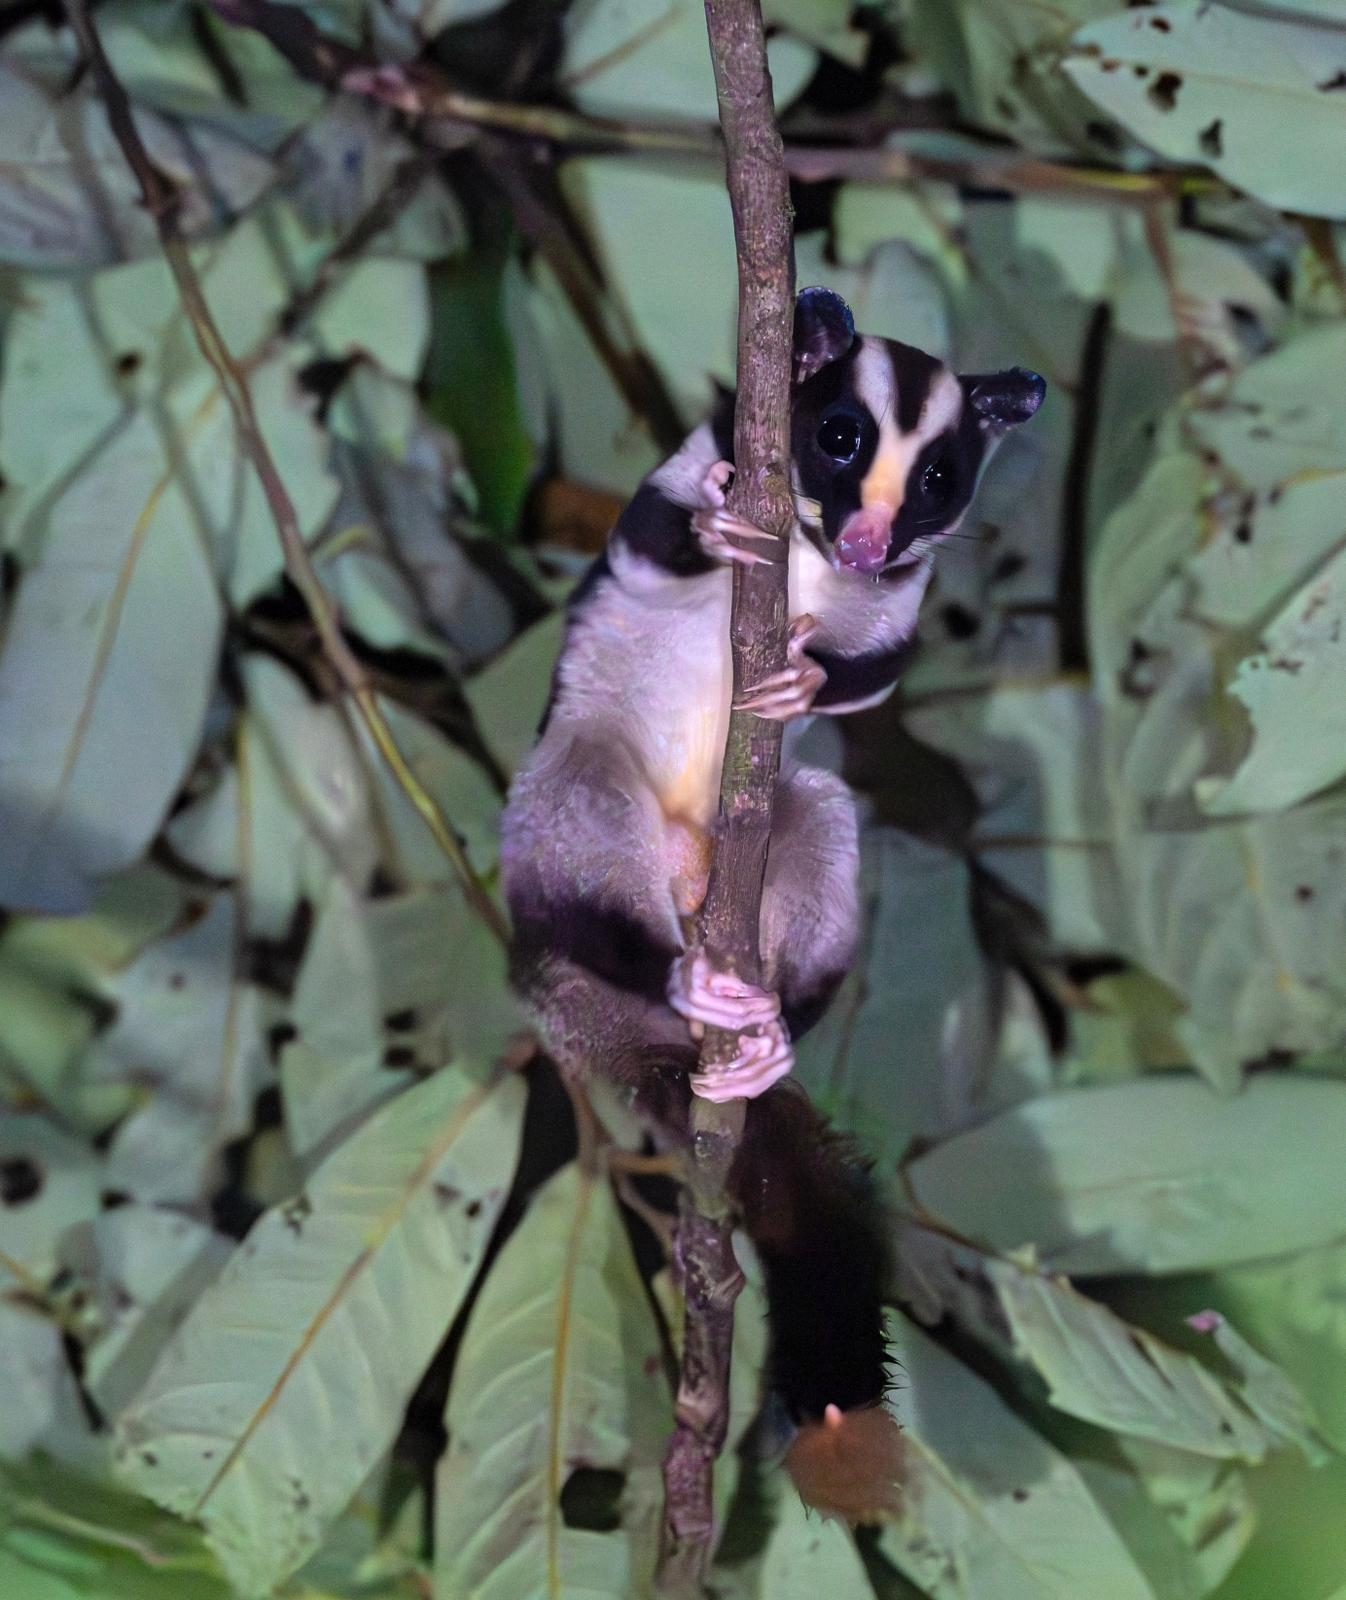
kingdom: Animalia
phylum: Chordata
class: Mammalia
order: Diprotodontia
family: Petauridae
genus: Dactylopsila
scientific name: Dactylopsila trivirgata
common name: Striped possum
